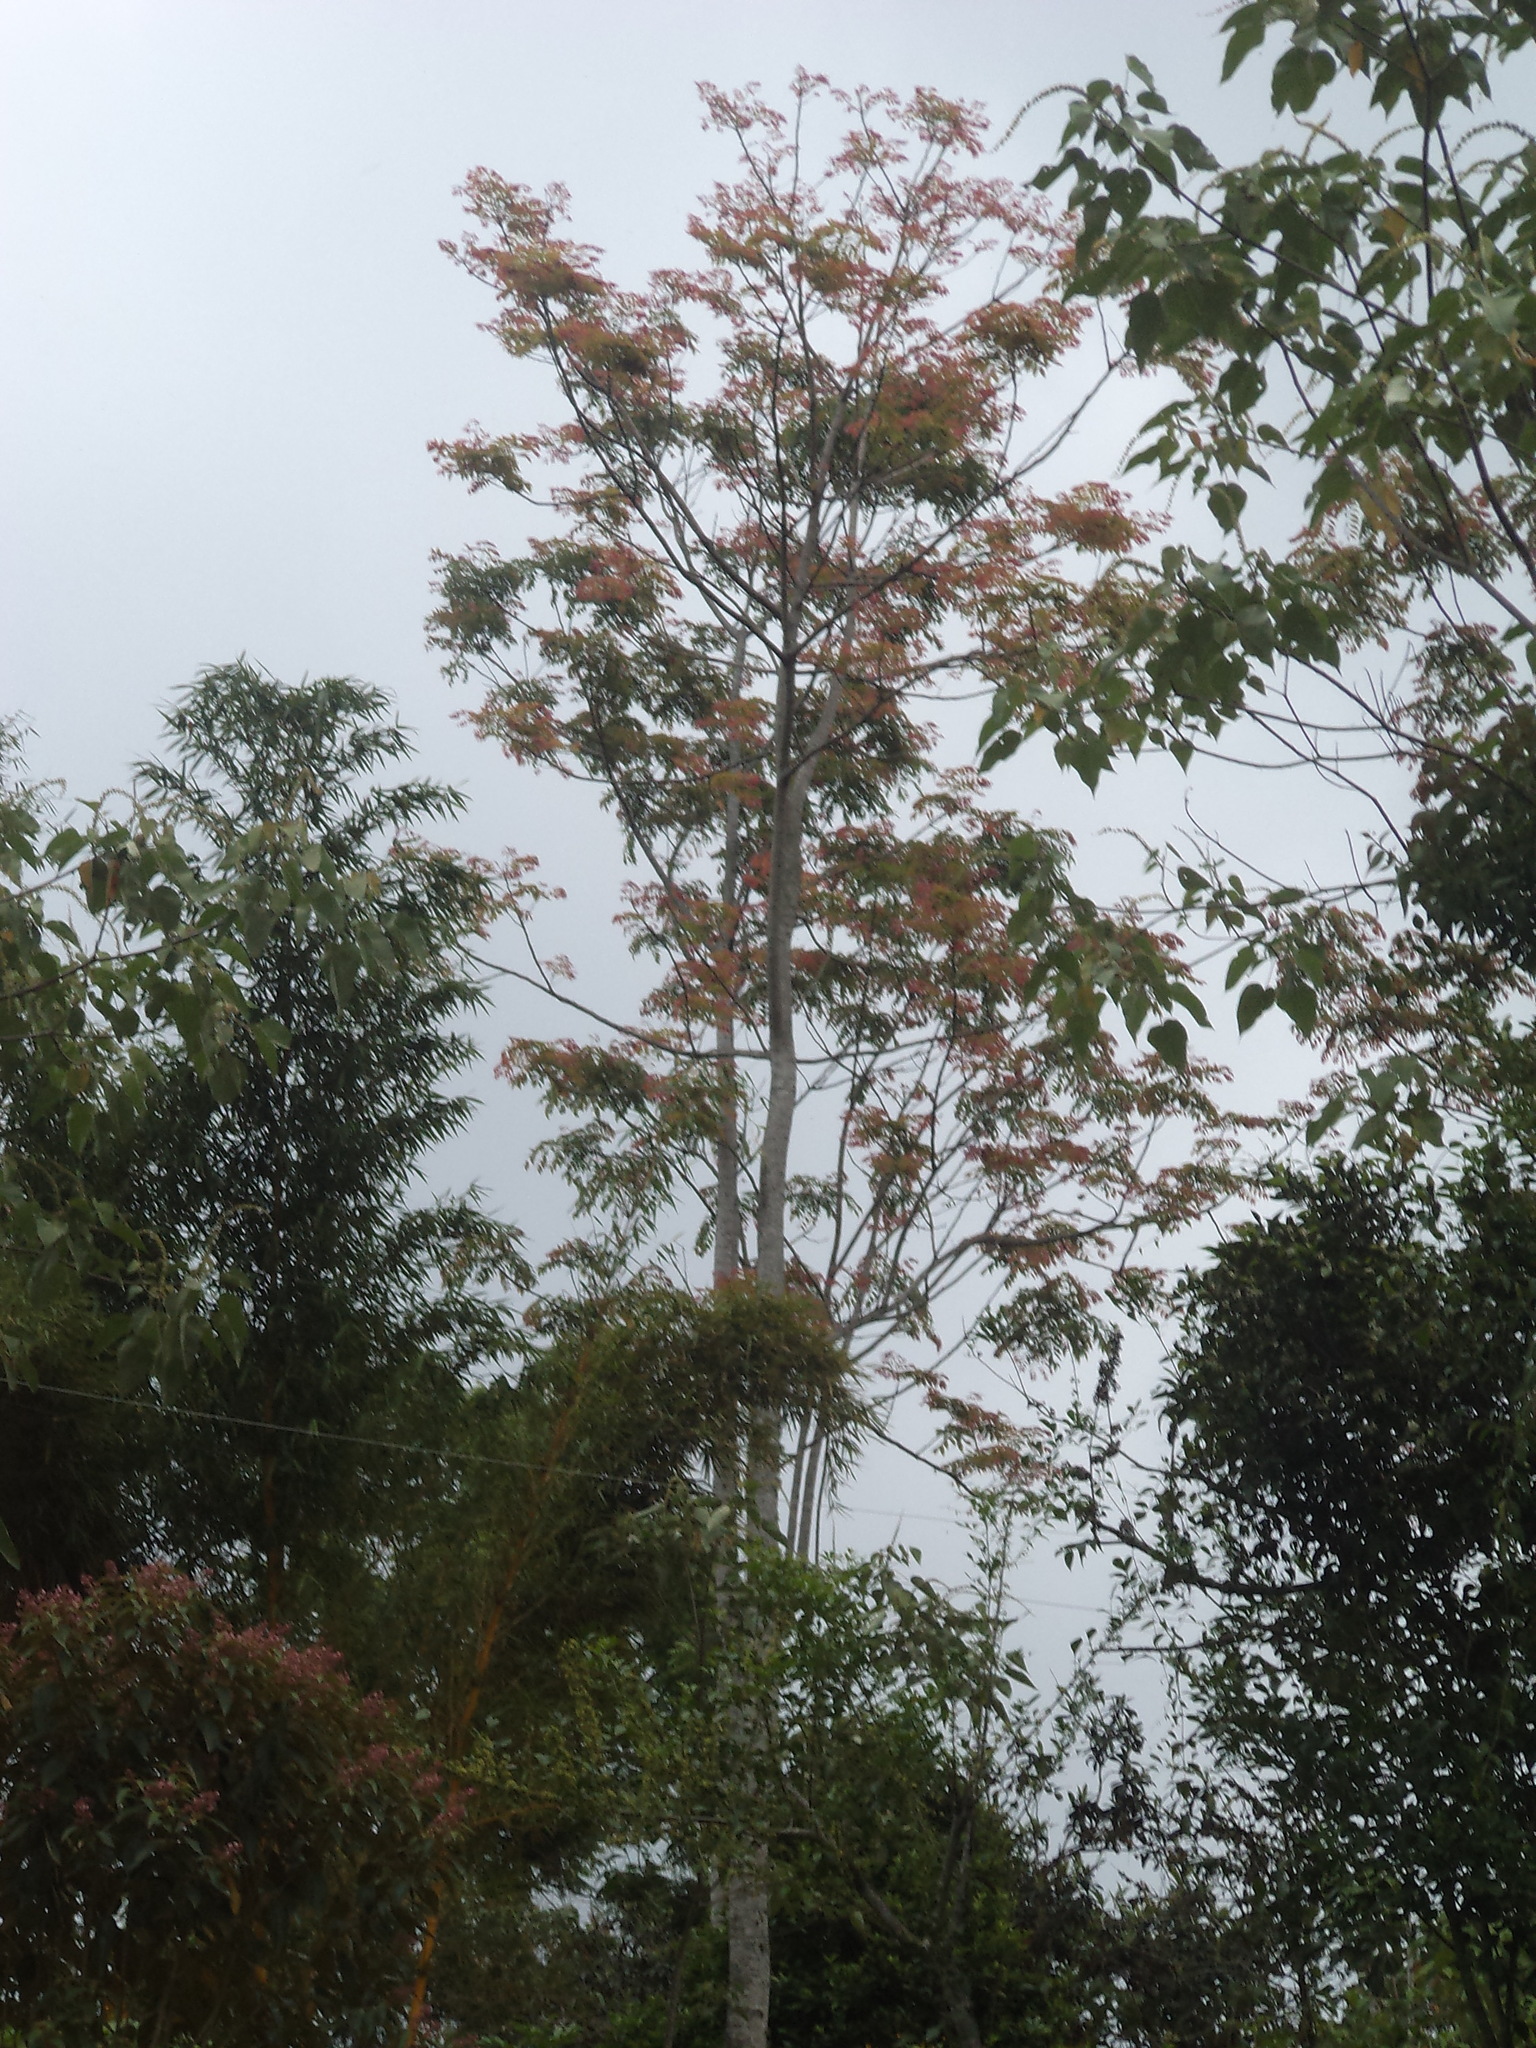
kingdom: Plantae
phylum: Tracheophyta
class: Magnoliopsida
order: Fabales
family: Fabaceae
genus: Acrocarpus
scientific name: Acrocarpus fraxinifolius
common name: Kenya coffeeshade
